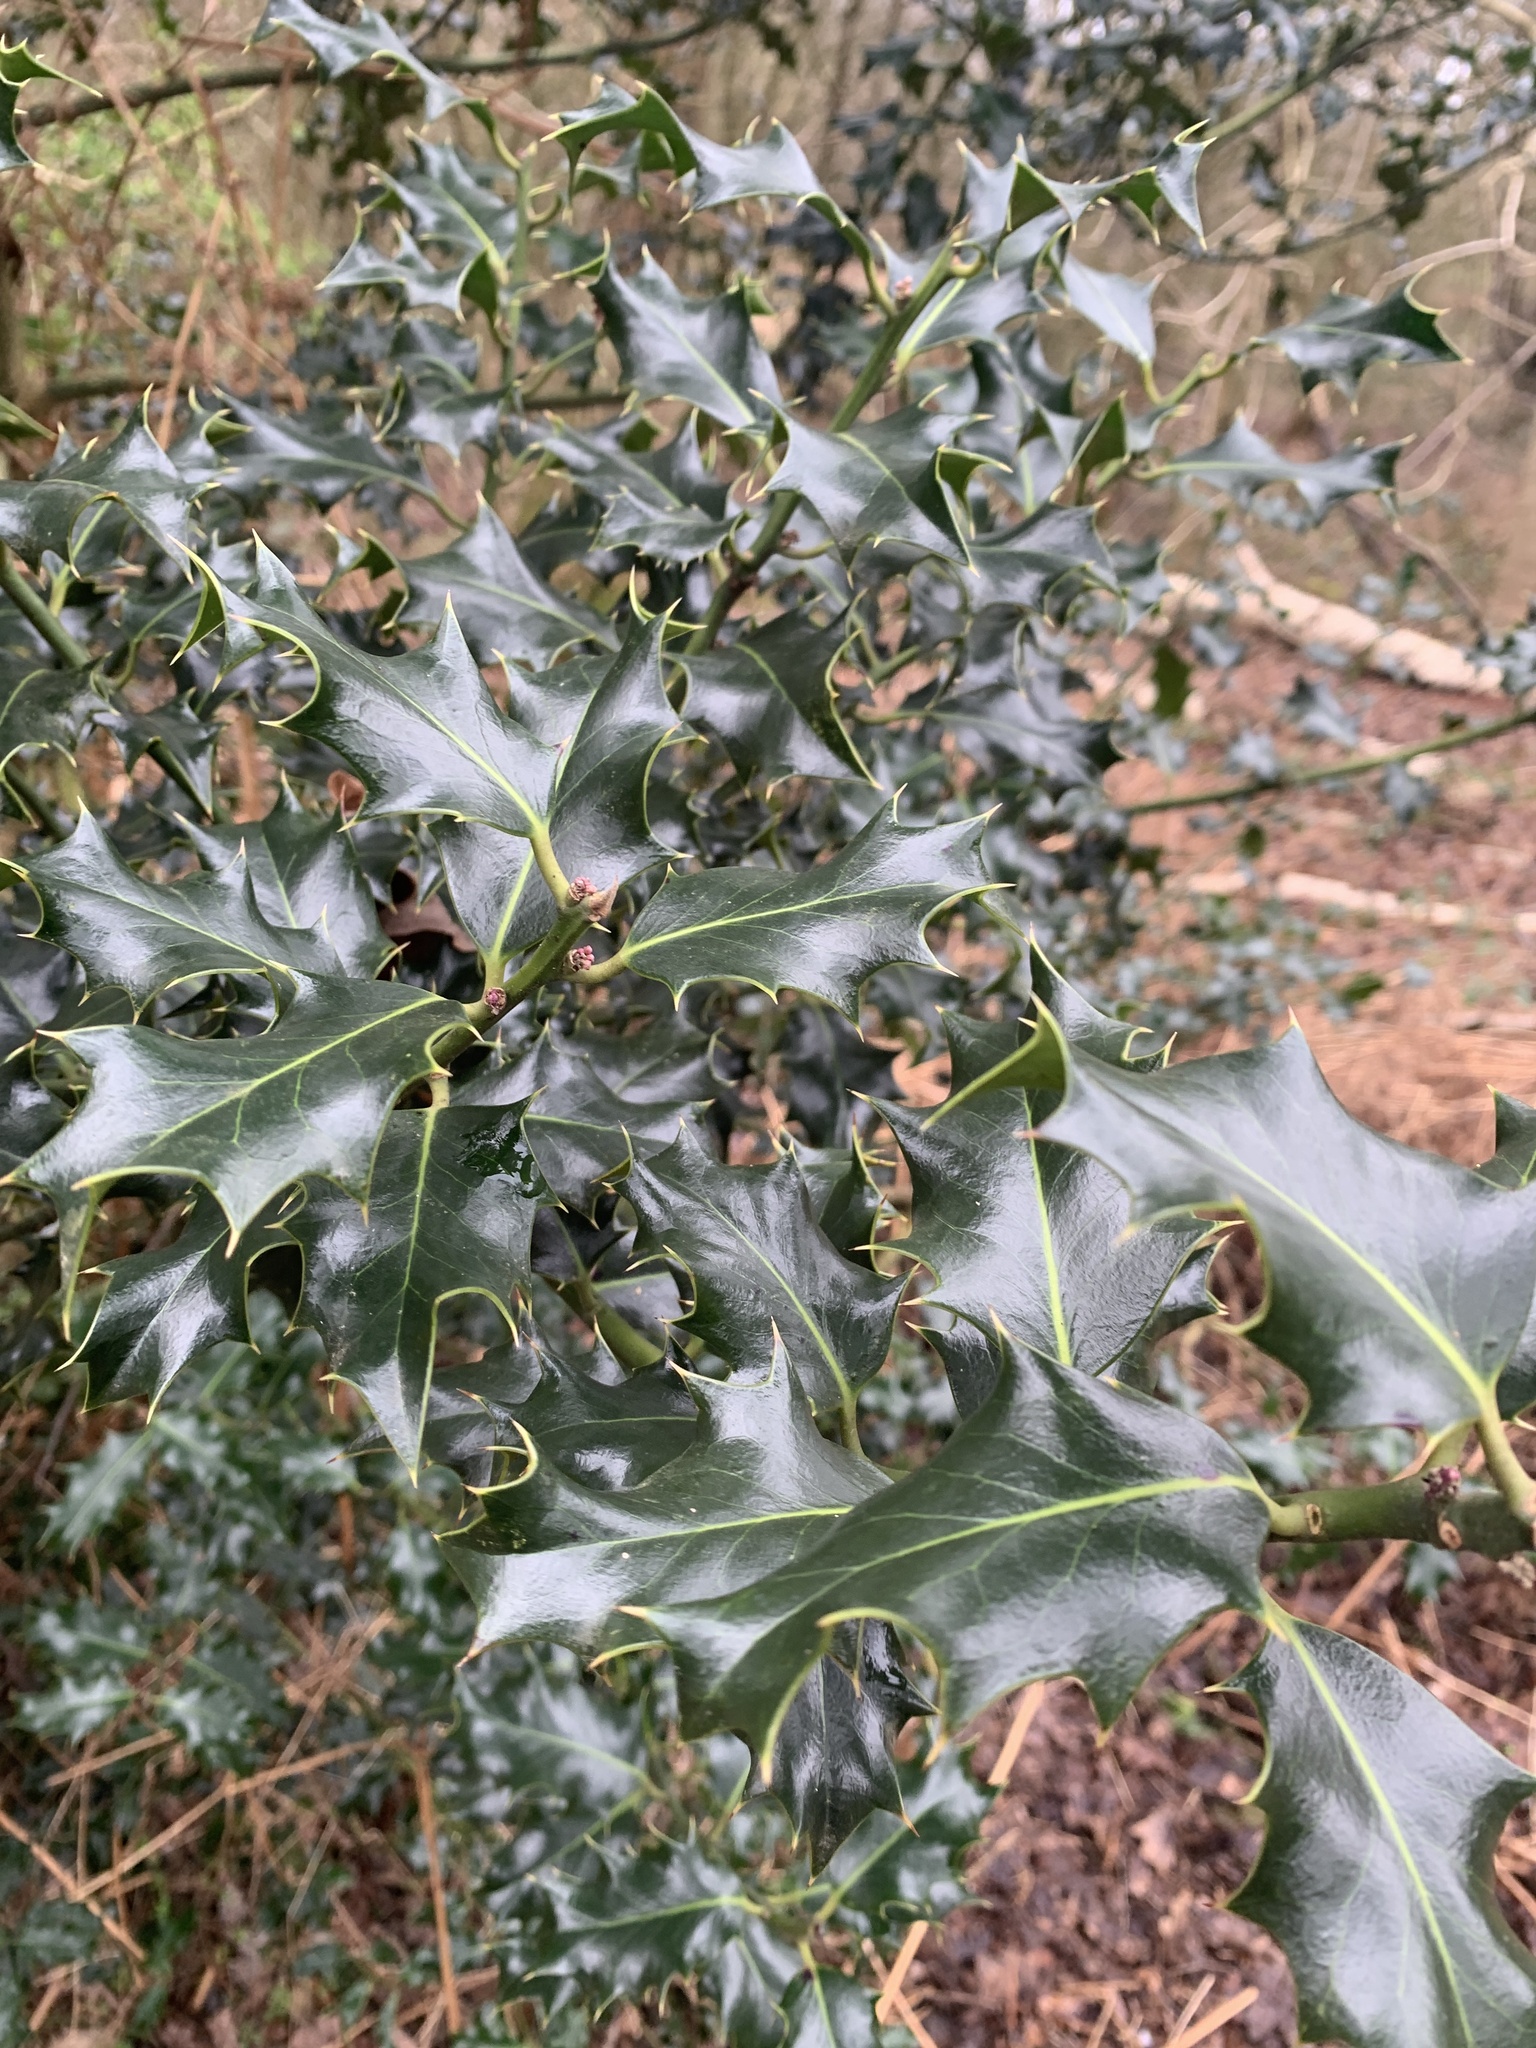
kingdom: Plantae
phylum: Tracheophyta
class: Magnoliopsida
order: Aquifoliales
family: Aquifoliaceae
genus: Ilex
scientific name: Ilex aquifolium
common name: English holly
